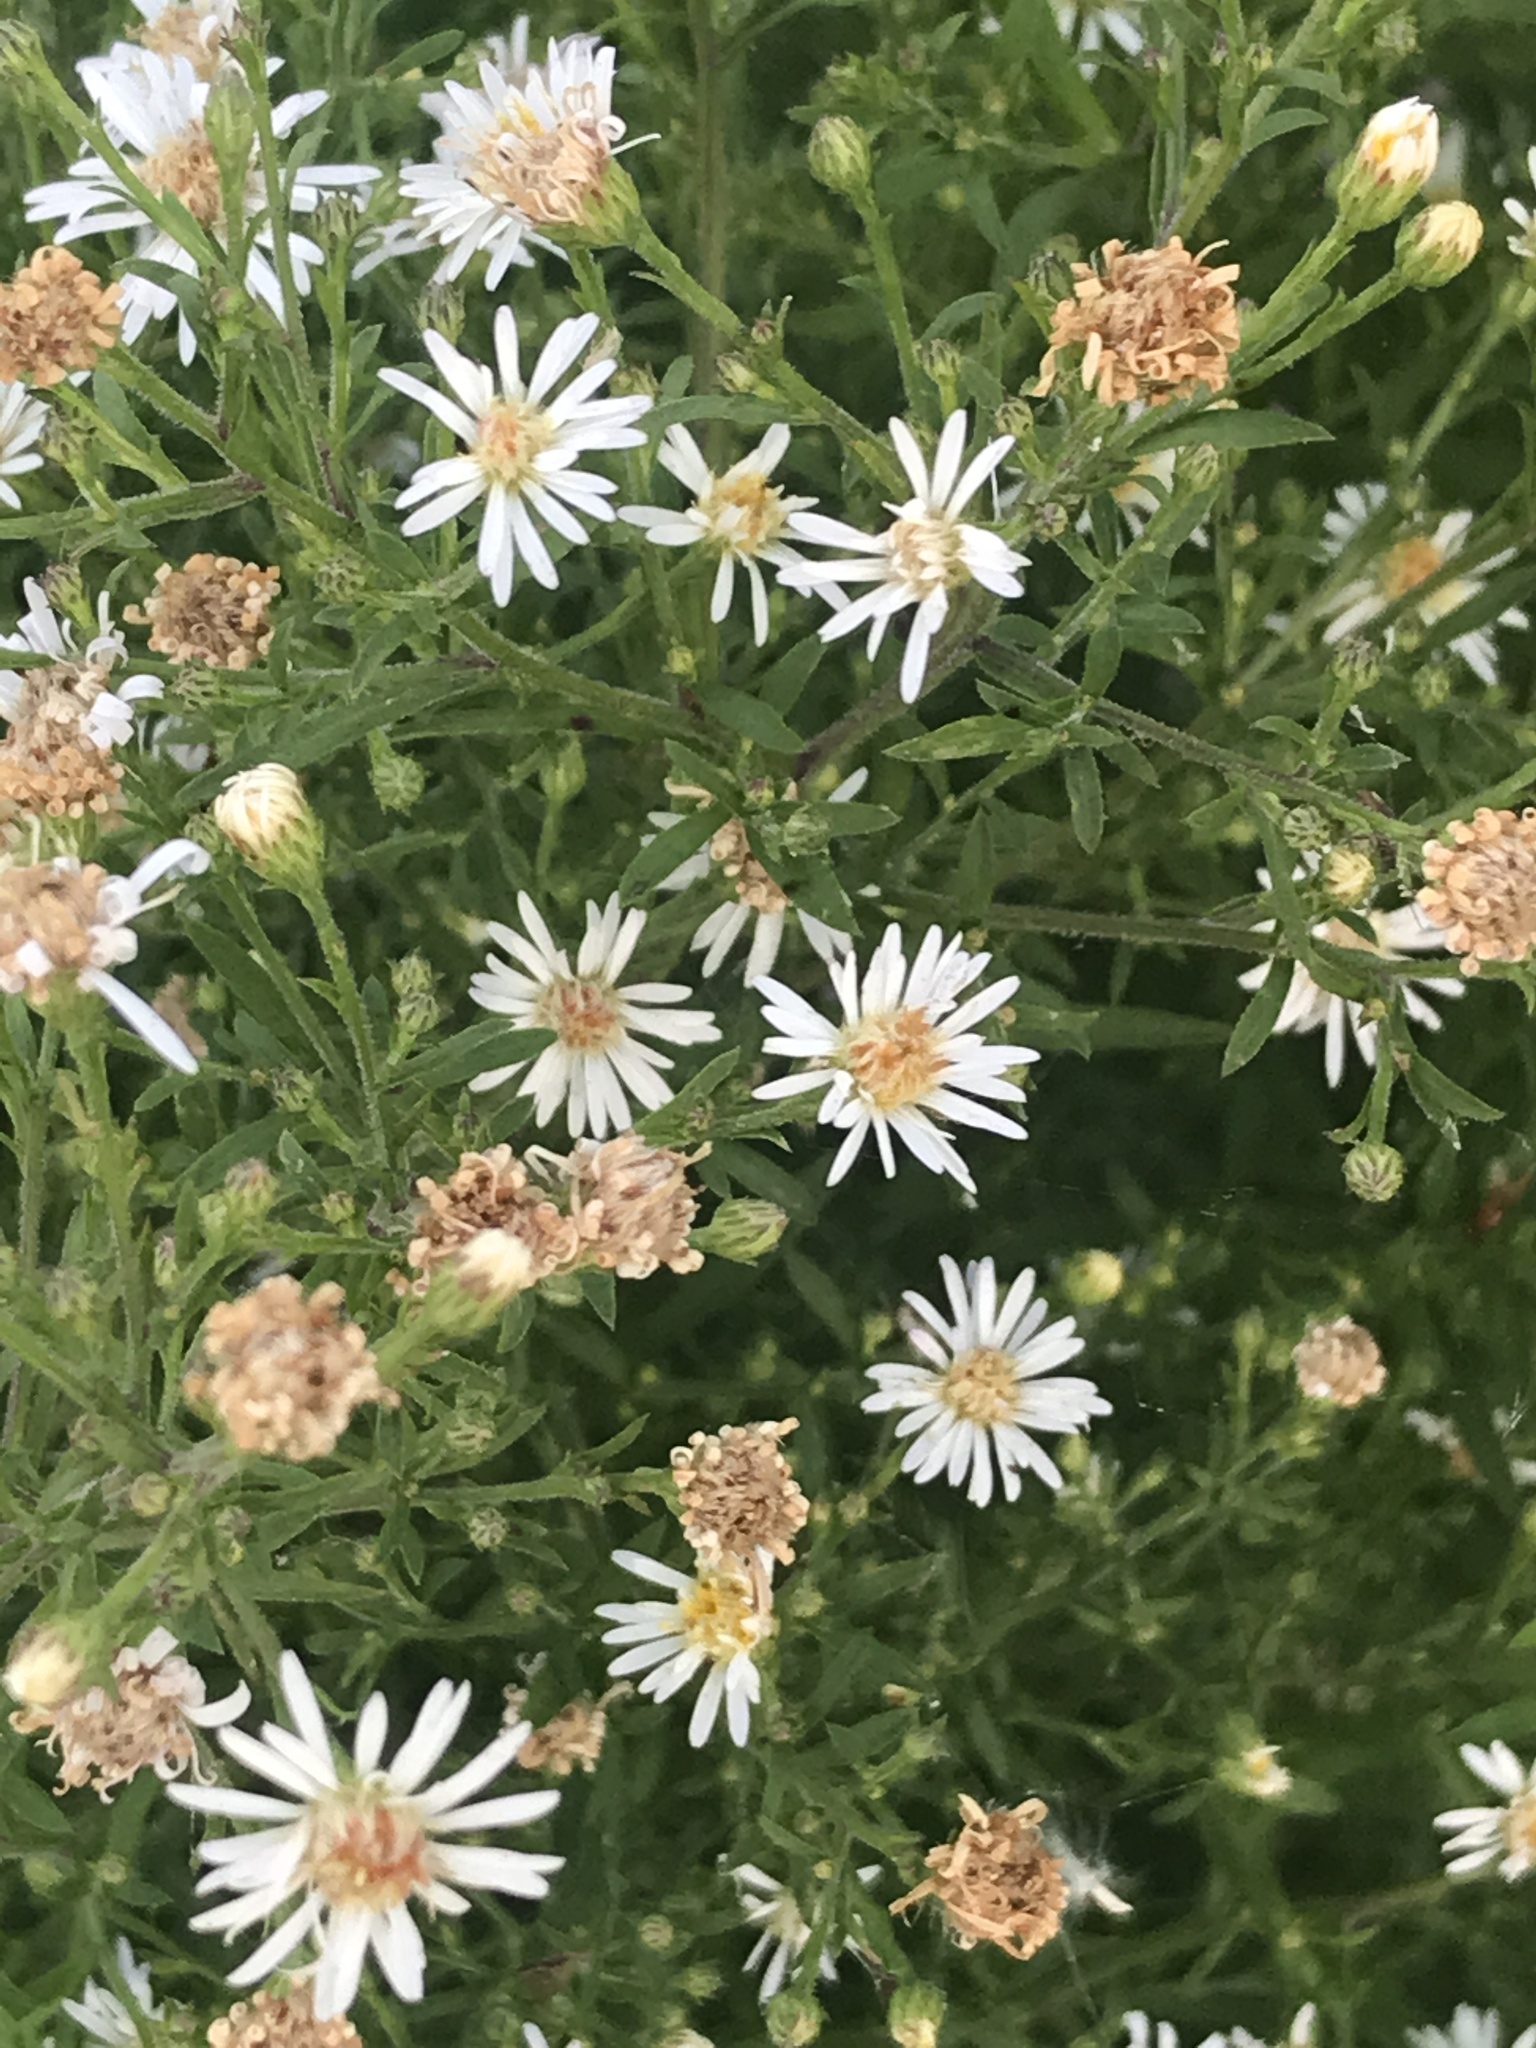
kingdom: Plantae
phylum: Tracheophyta
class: Magnoliopsida
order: Asterales
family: Asteraceae
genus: Symphyotrichum
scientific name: Symphyotrichum pilosum
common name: Awl aster
